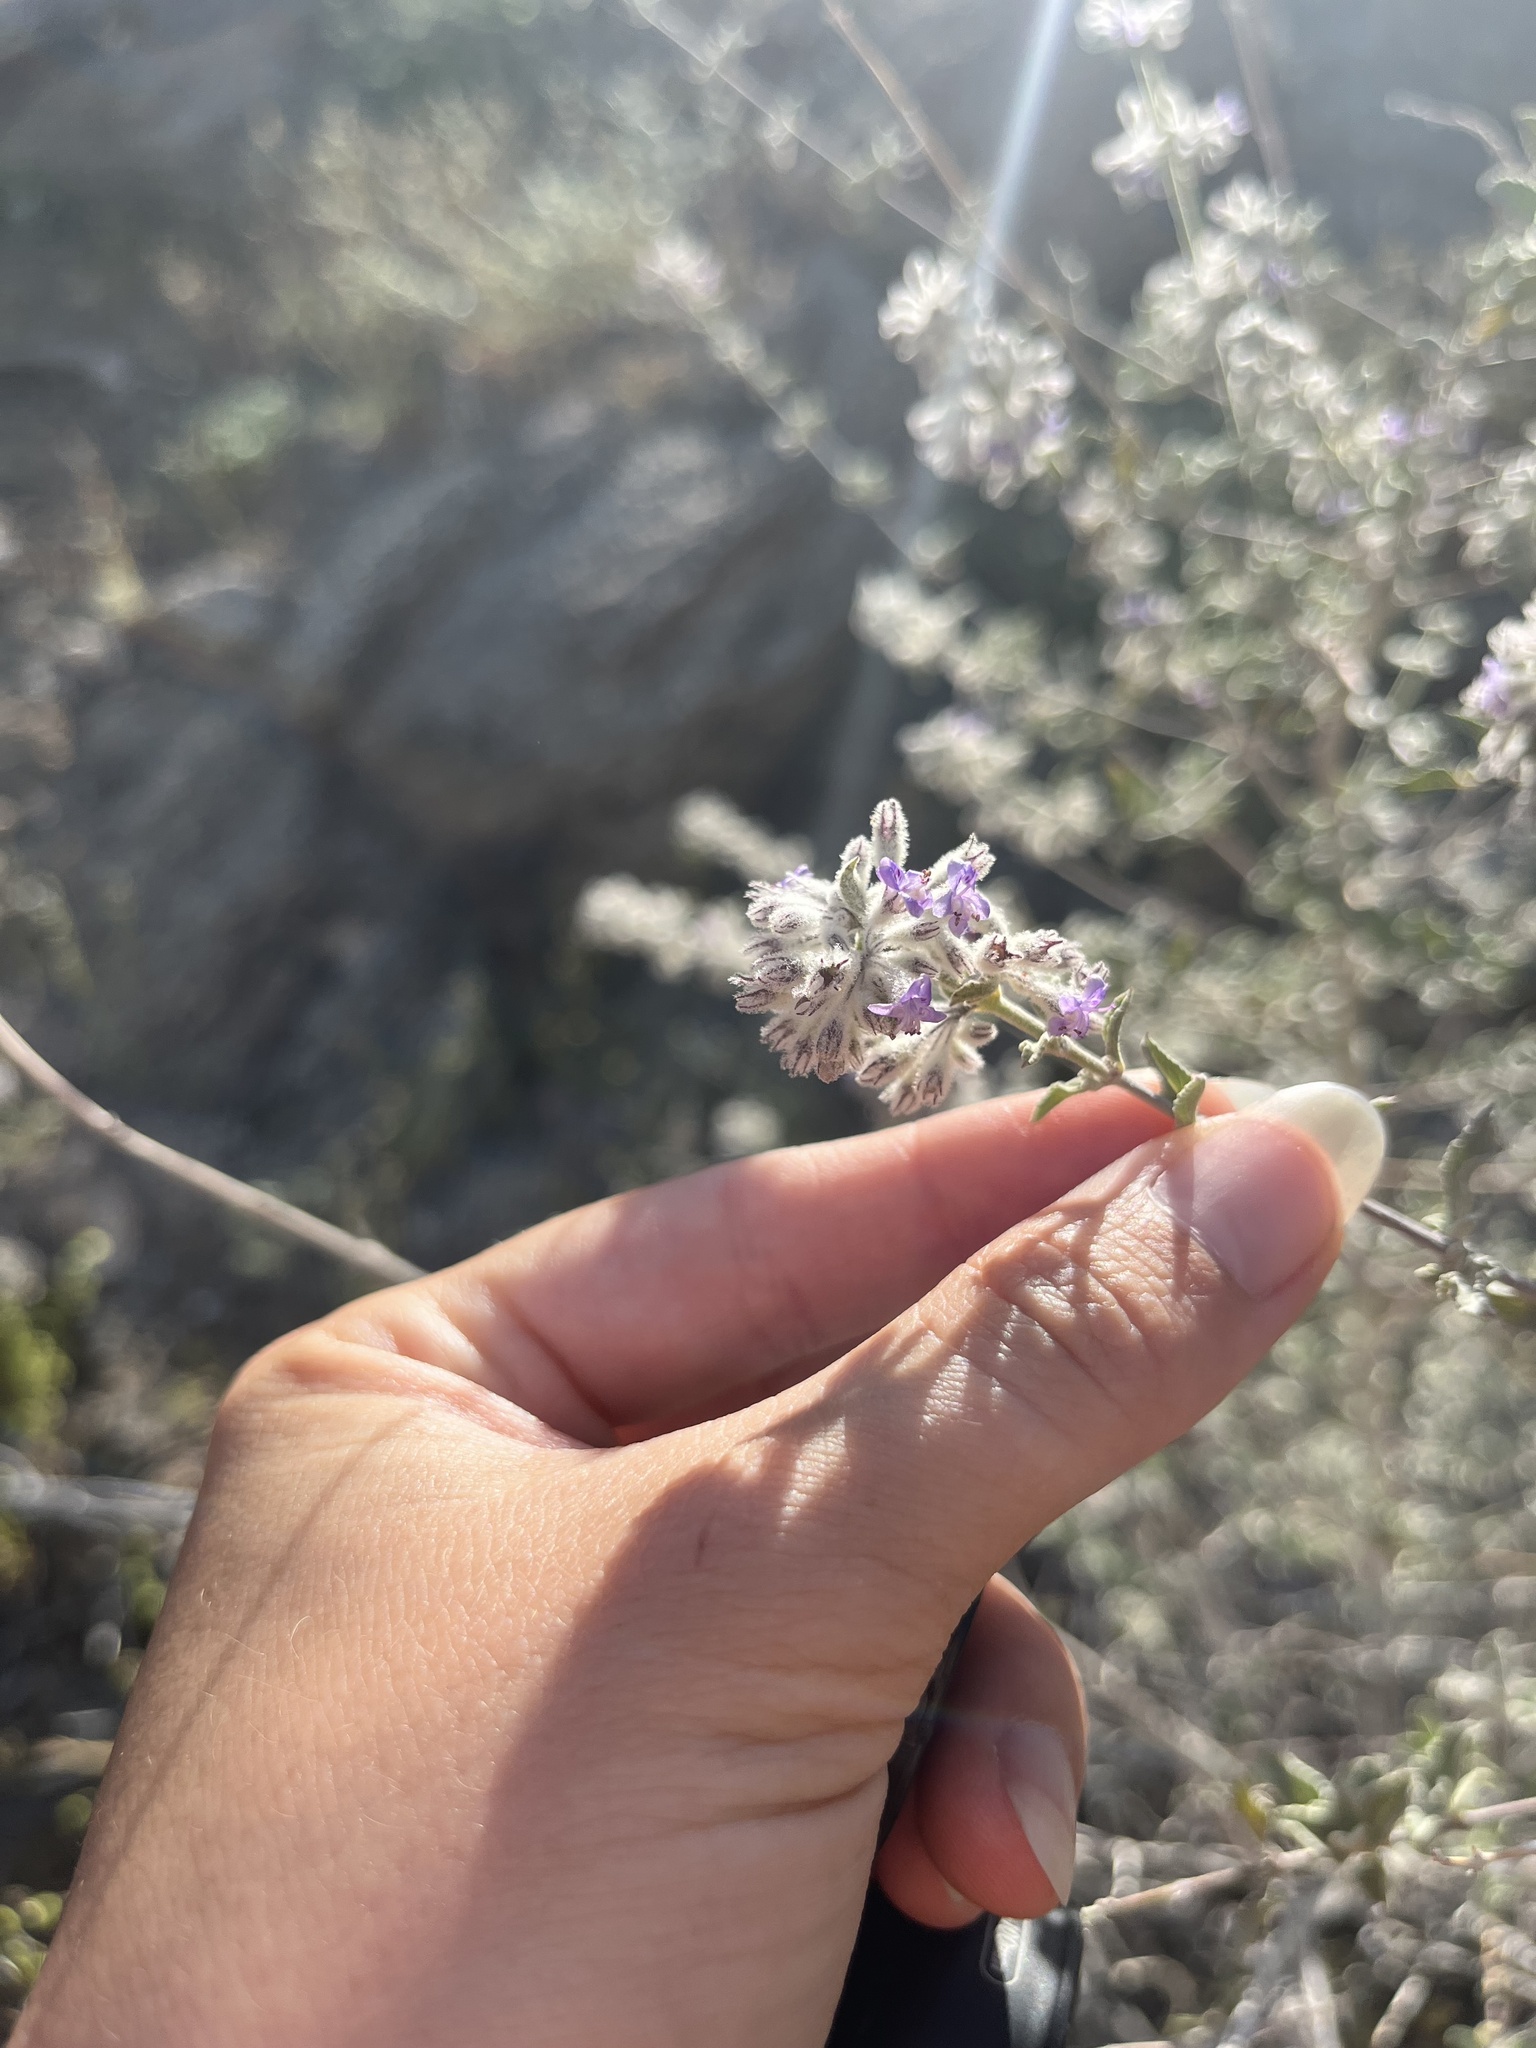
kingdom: Plantae
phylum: Tracheophyta
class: Magnoliopsida
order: Lamiales
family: Lamiaceae
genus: Condea
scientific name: Condea emoryi
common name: Chia
